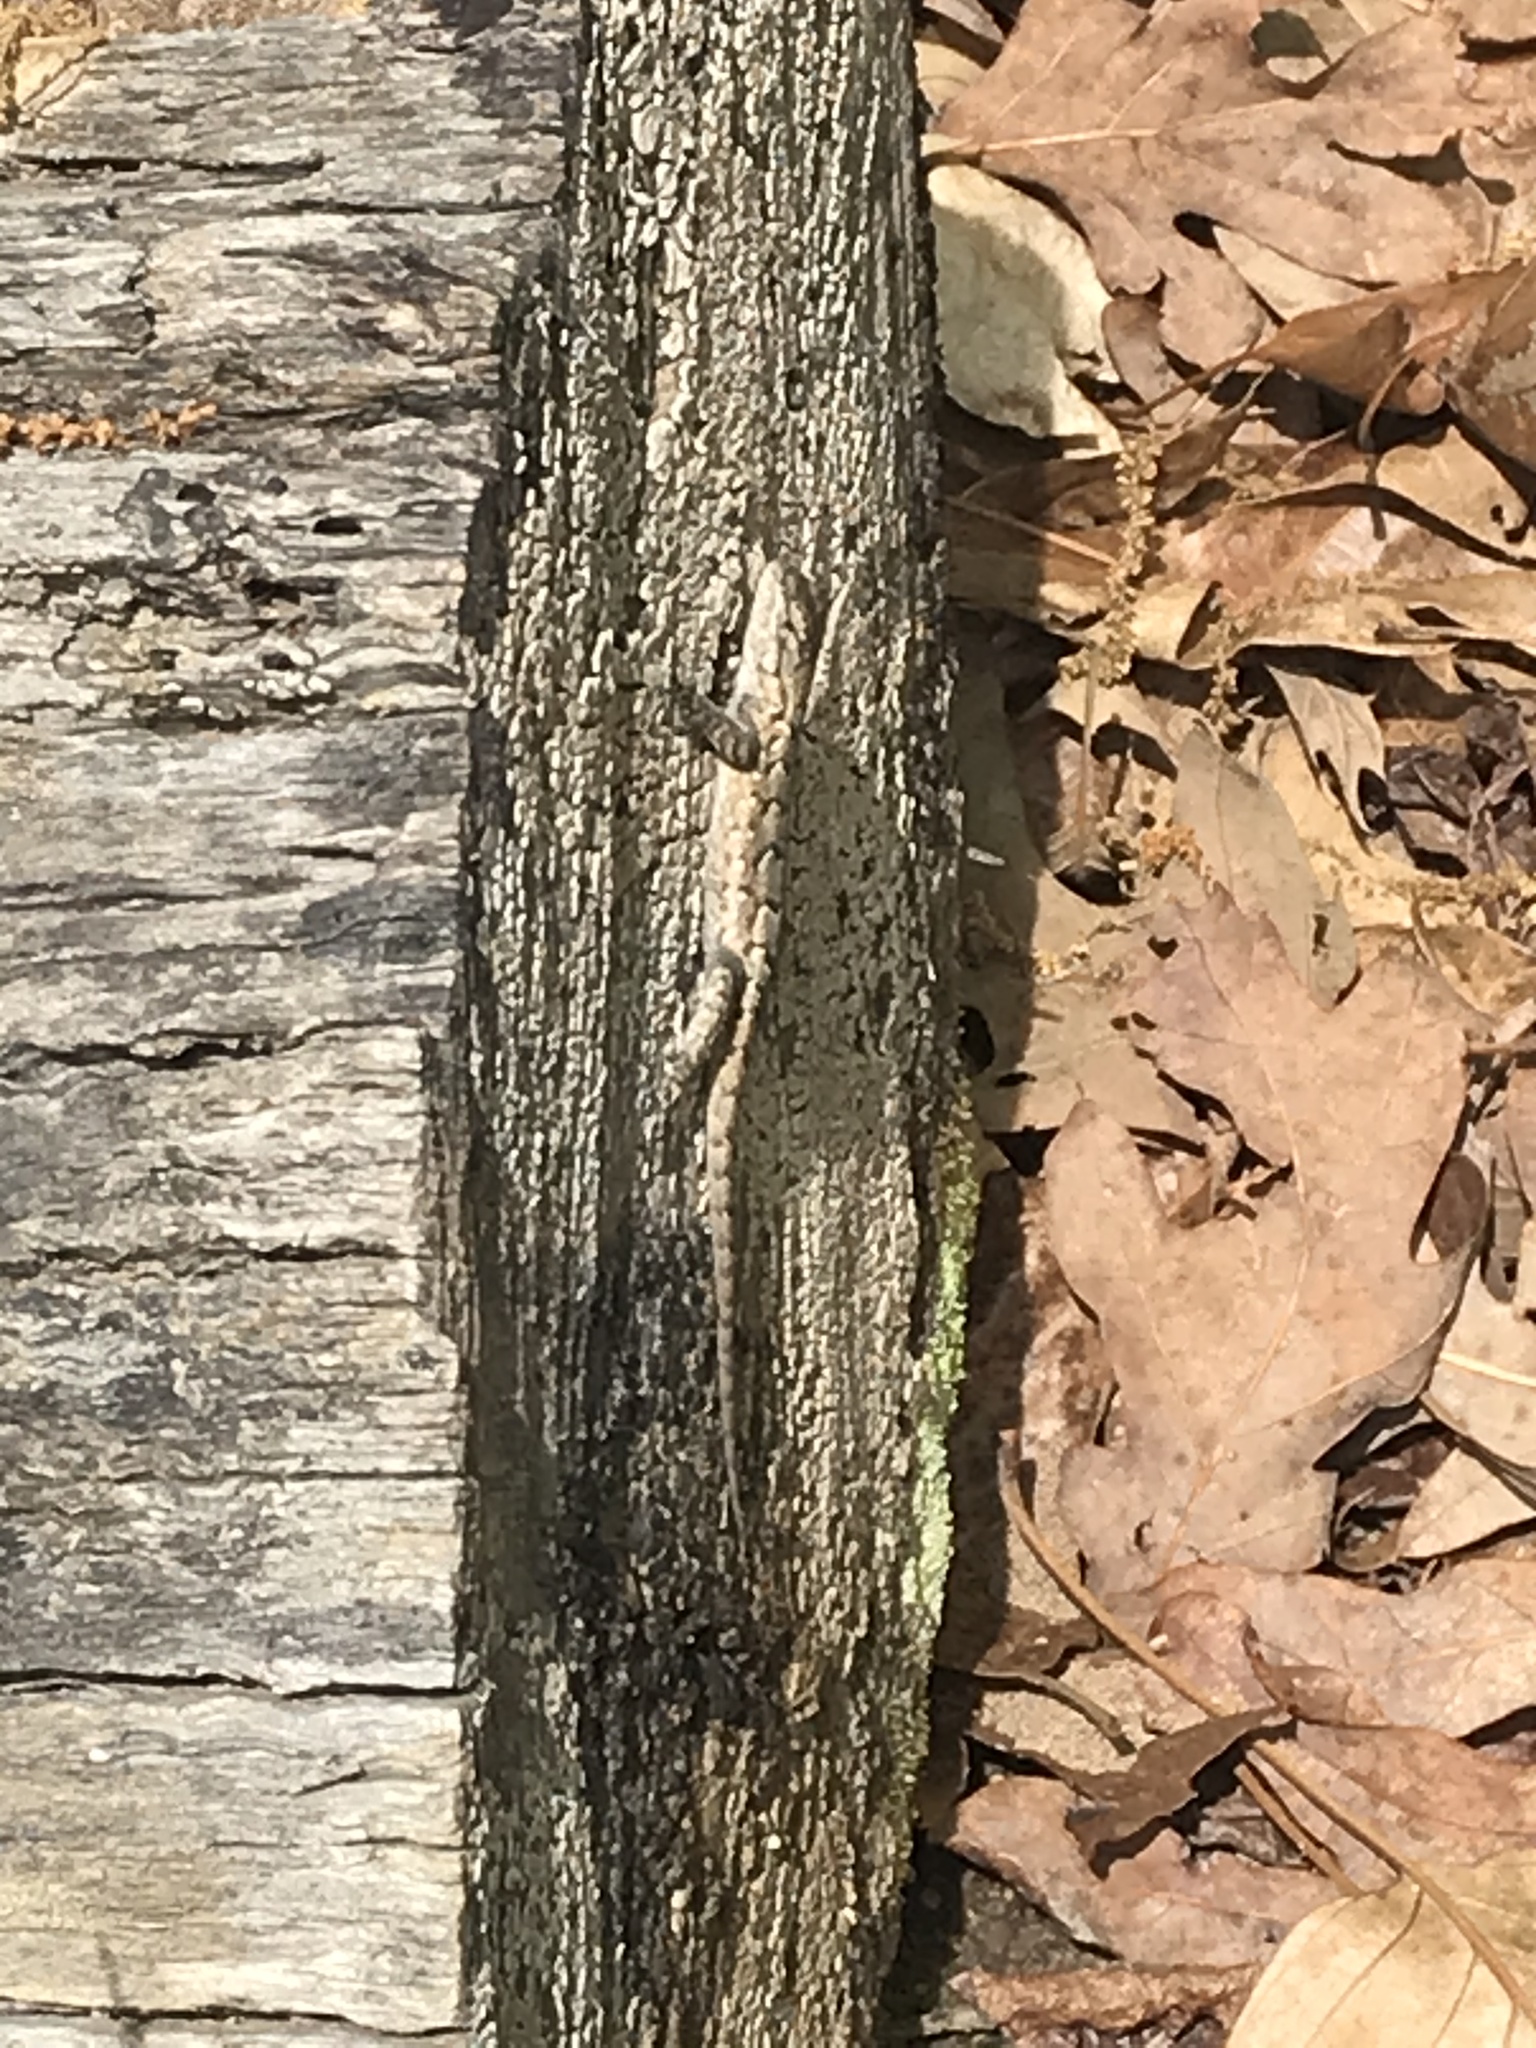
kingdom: Animalia
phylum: Chordata
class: Squamata
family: Phrynosomatidae
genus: Sceloporus
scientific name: Sceloporus consobrinus
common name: Southern prairie lizard
